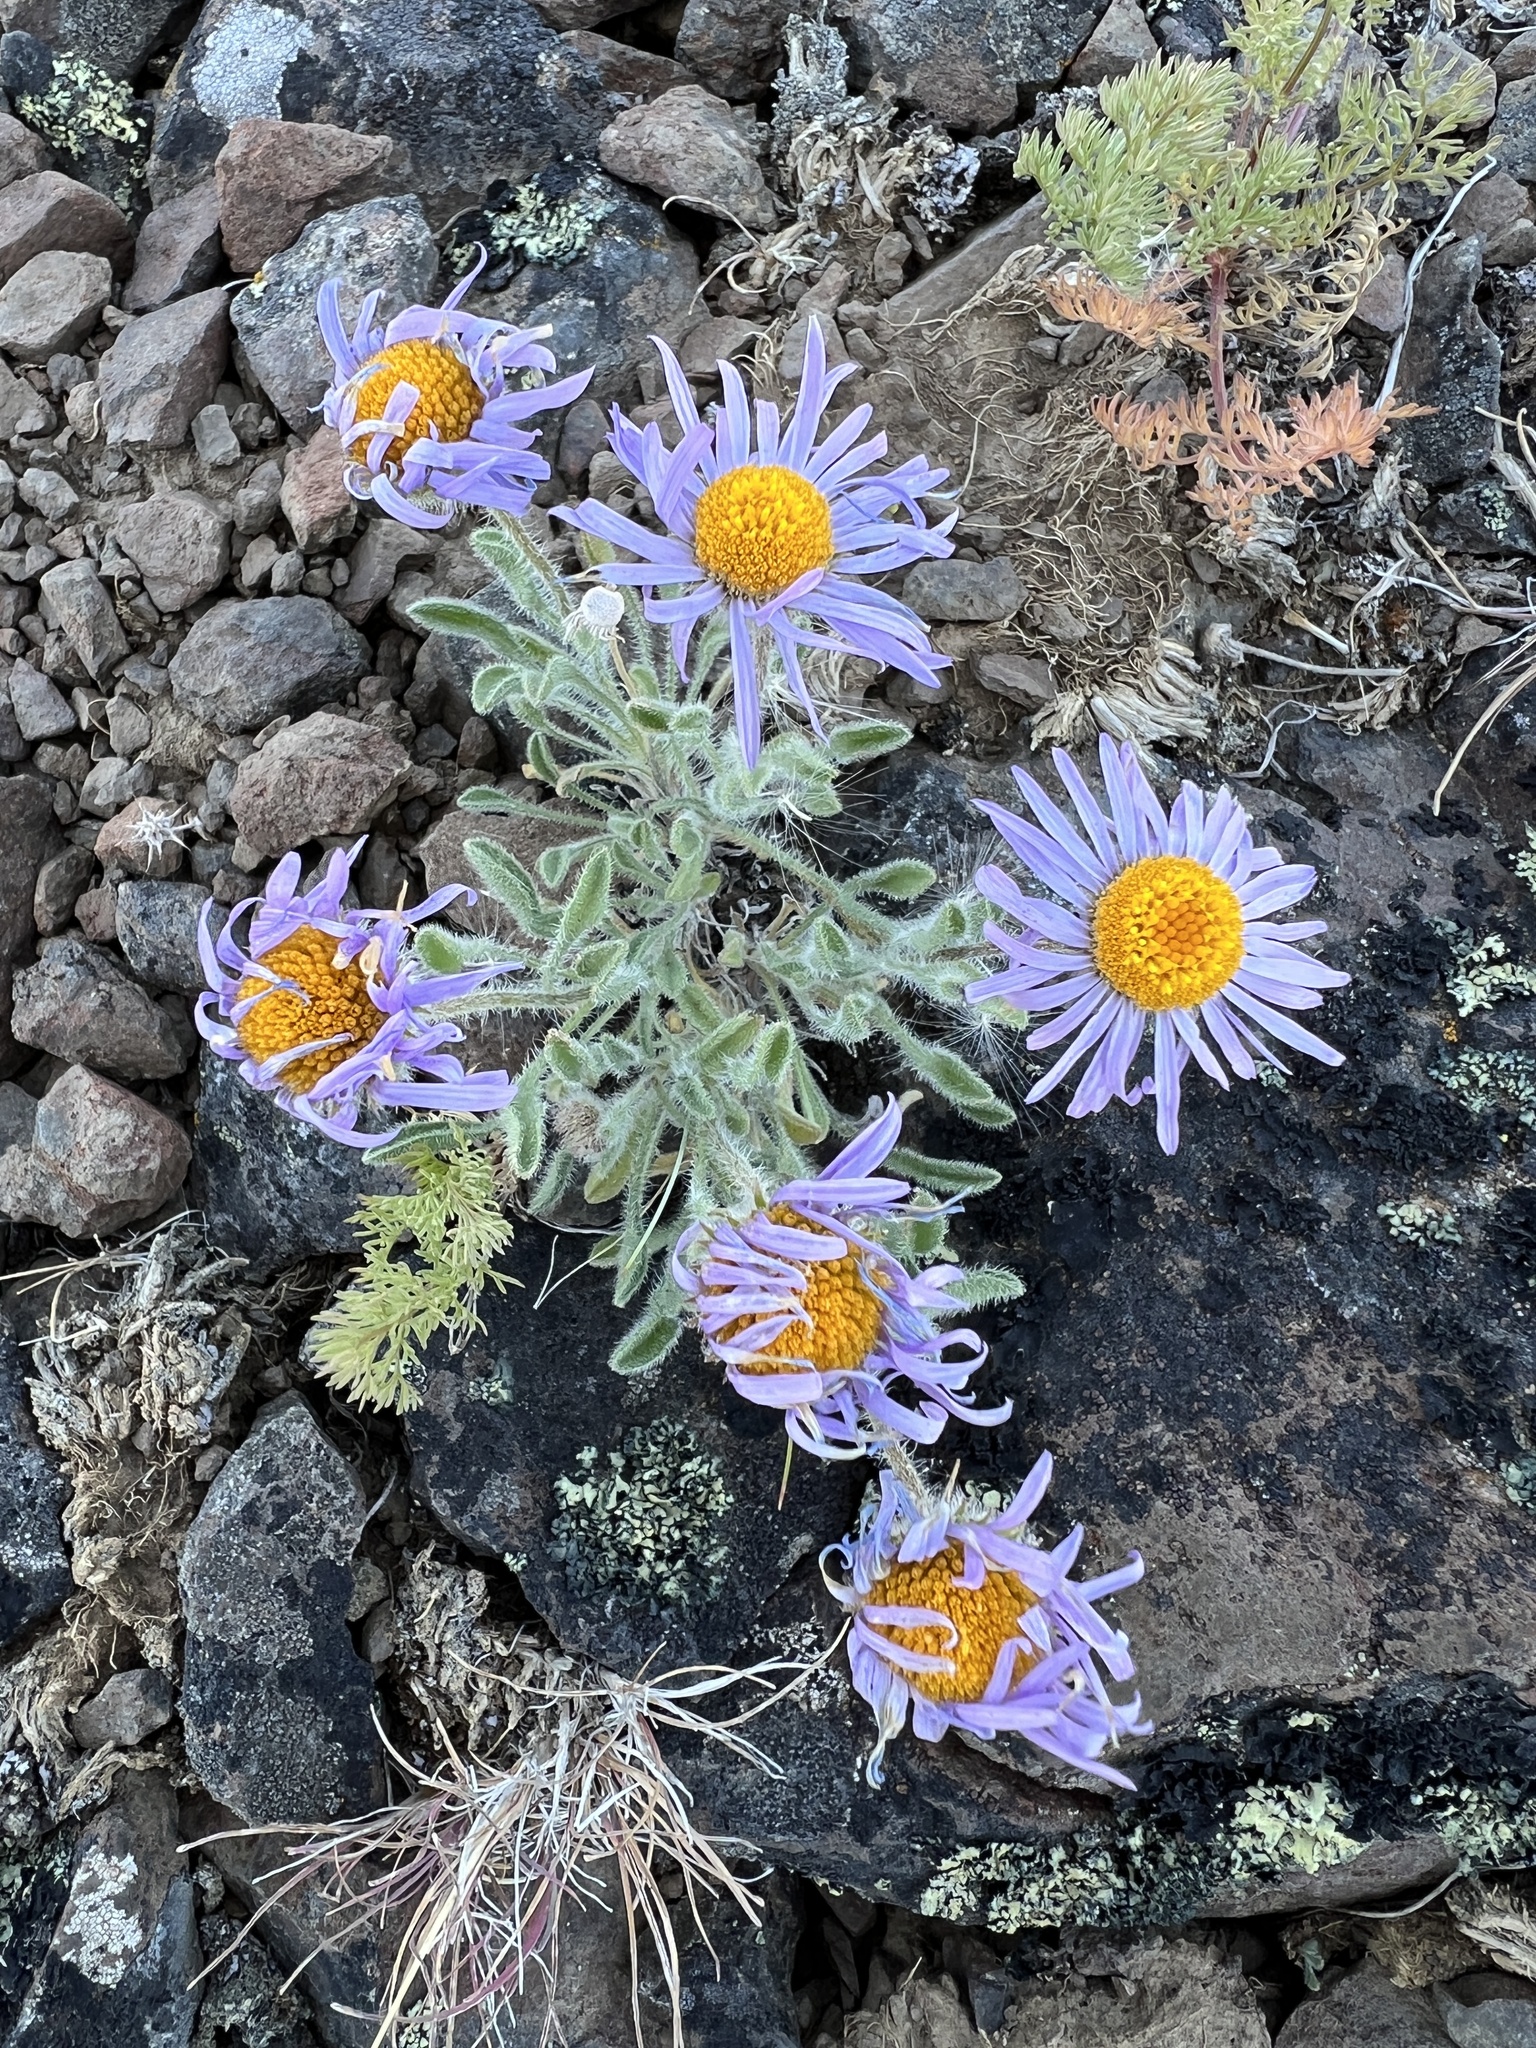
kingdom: Plantae
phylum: Tracheophyta
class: Magnoliopsida
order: Asterales
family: Asteraceae
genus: Erigeron
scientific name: Erigeron poliospermus
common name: Cushion fleabane
